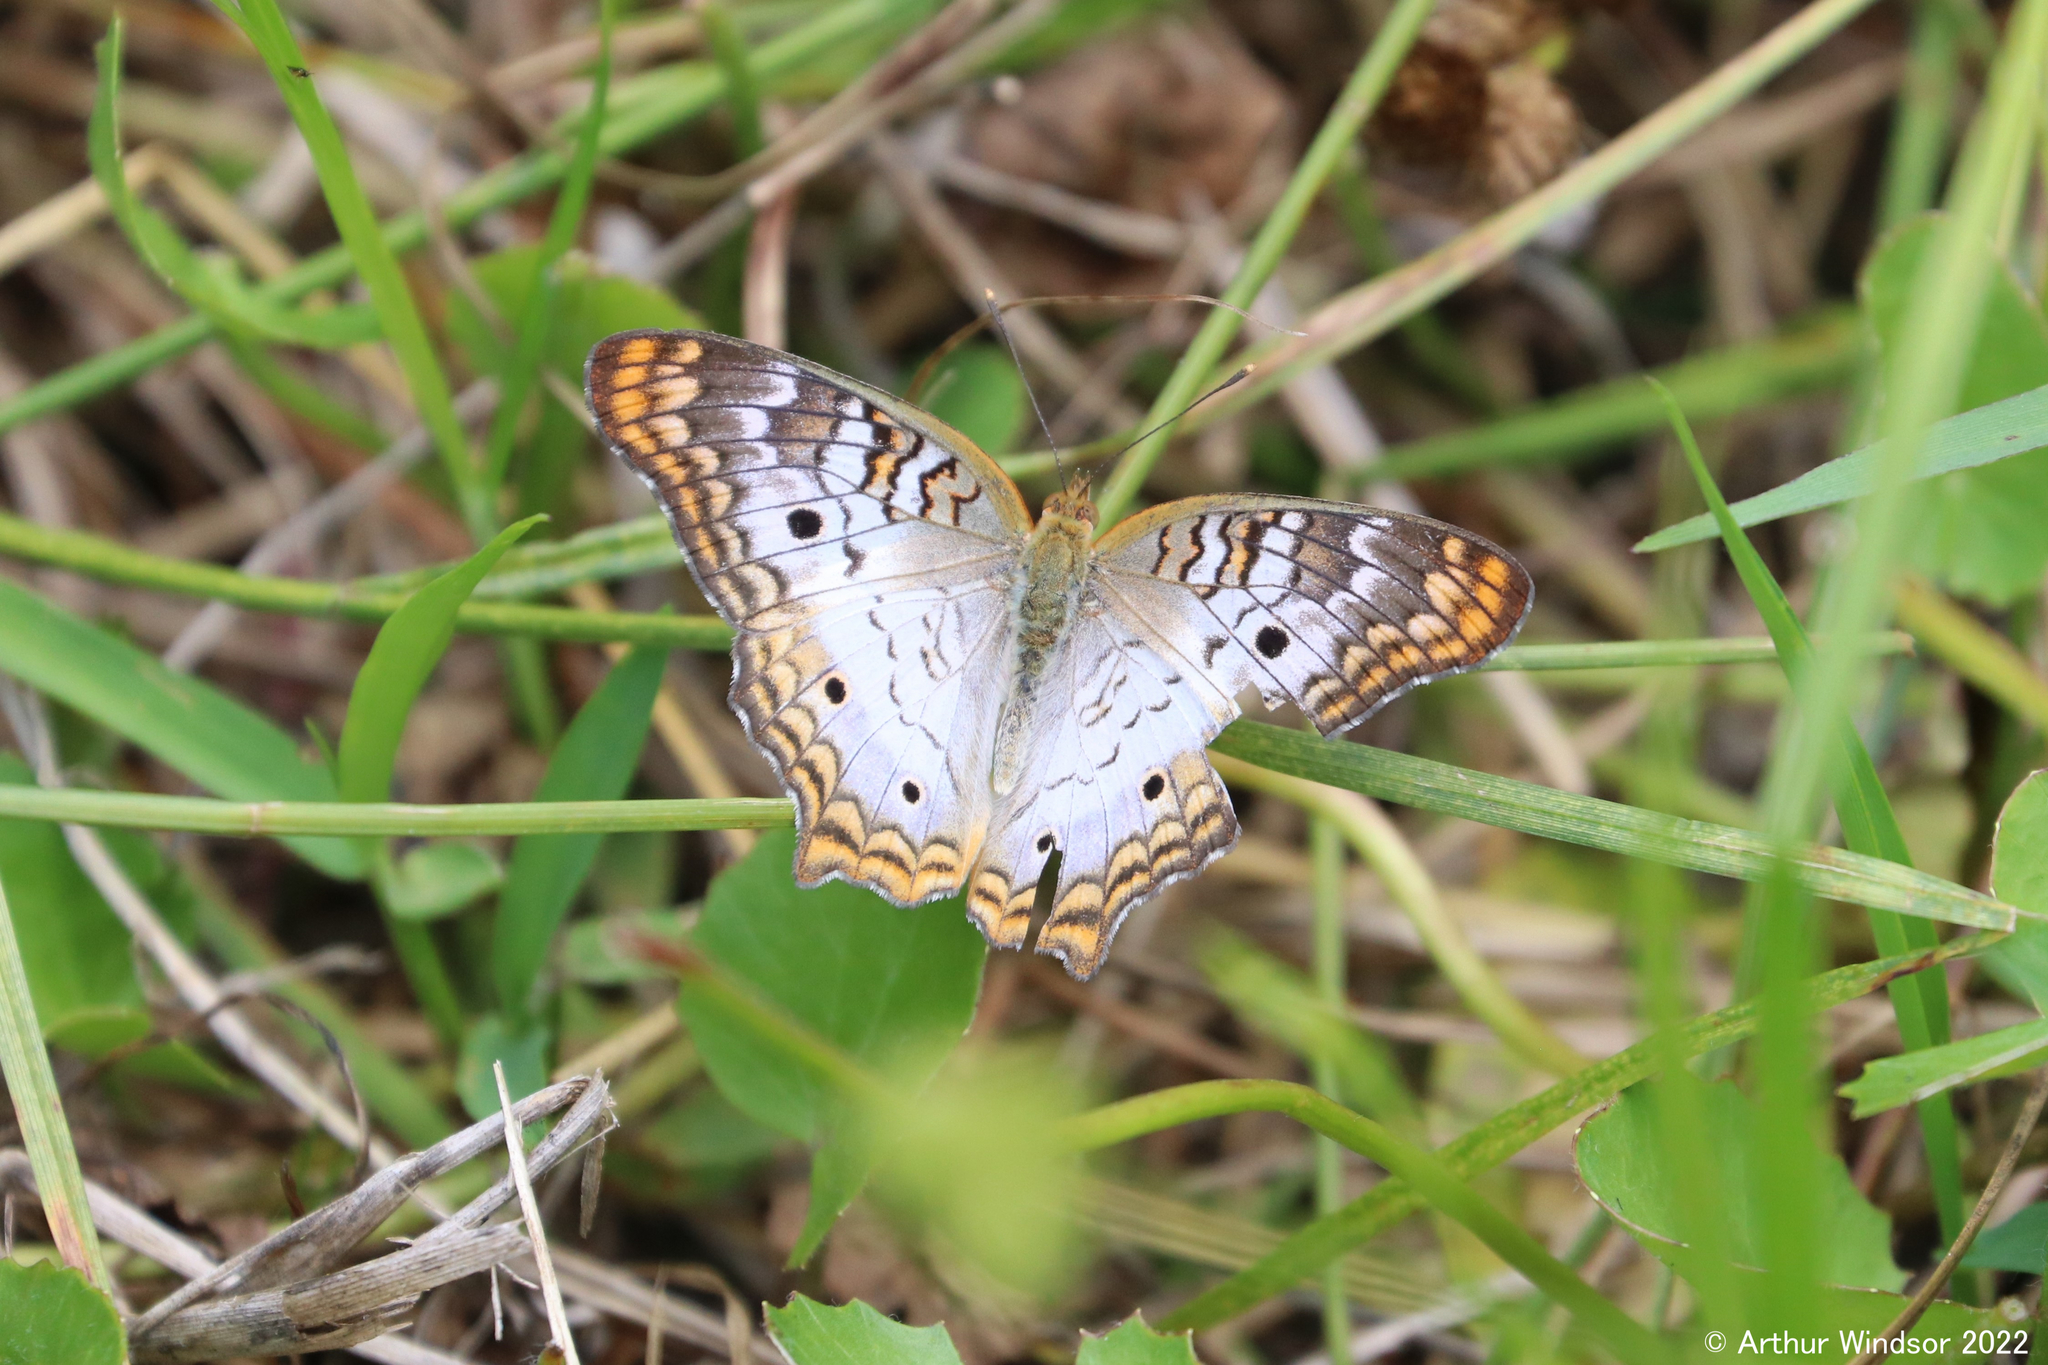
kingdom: Animalia
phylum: Arthropoda
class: Insecta
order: Lepidoptera
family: Nymphalidae
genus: Anartia
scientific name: Anartia jatrophae
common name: White peacock
